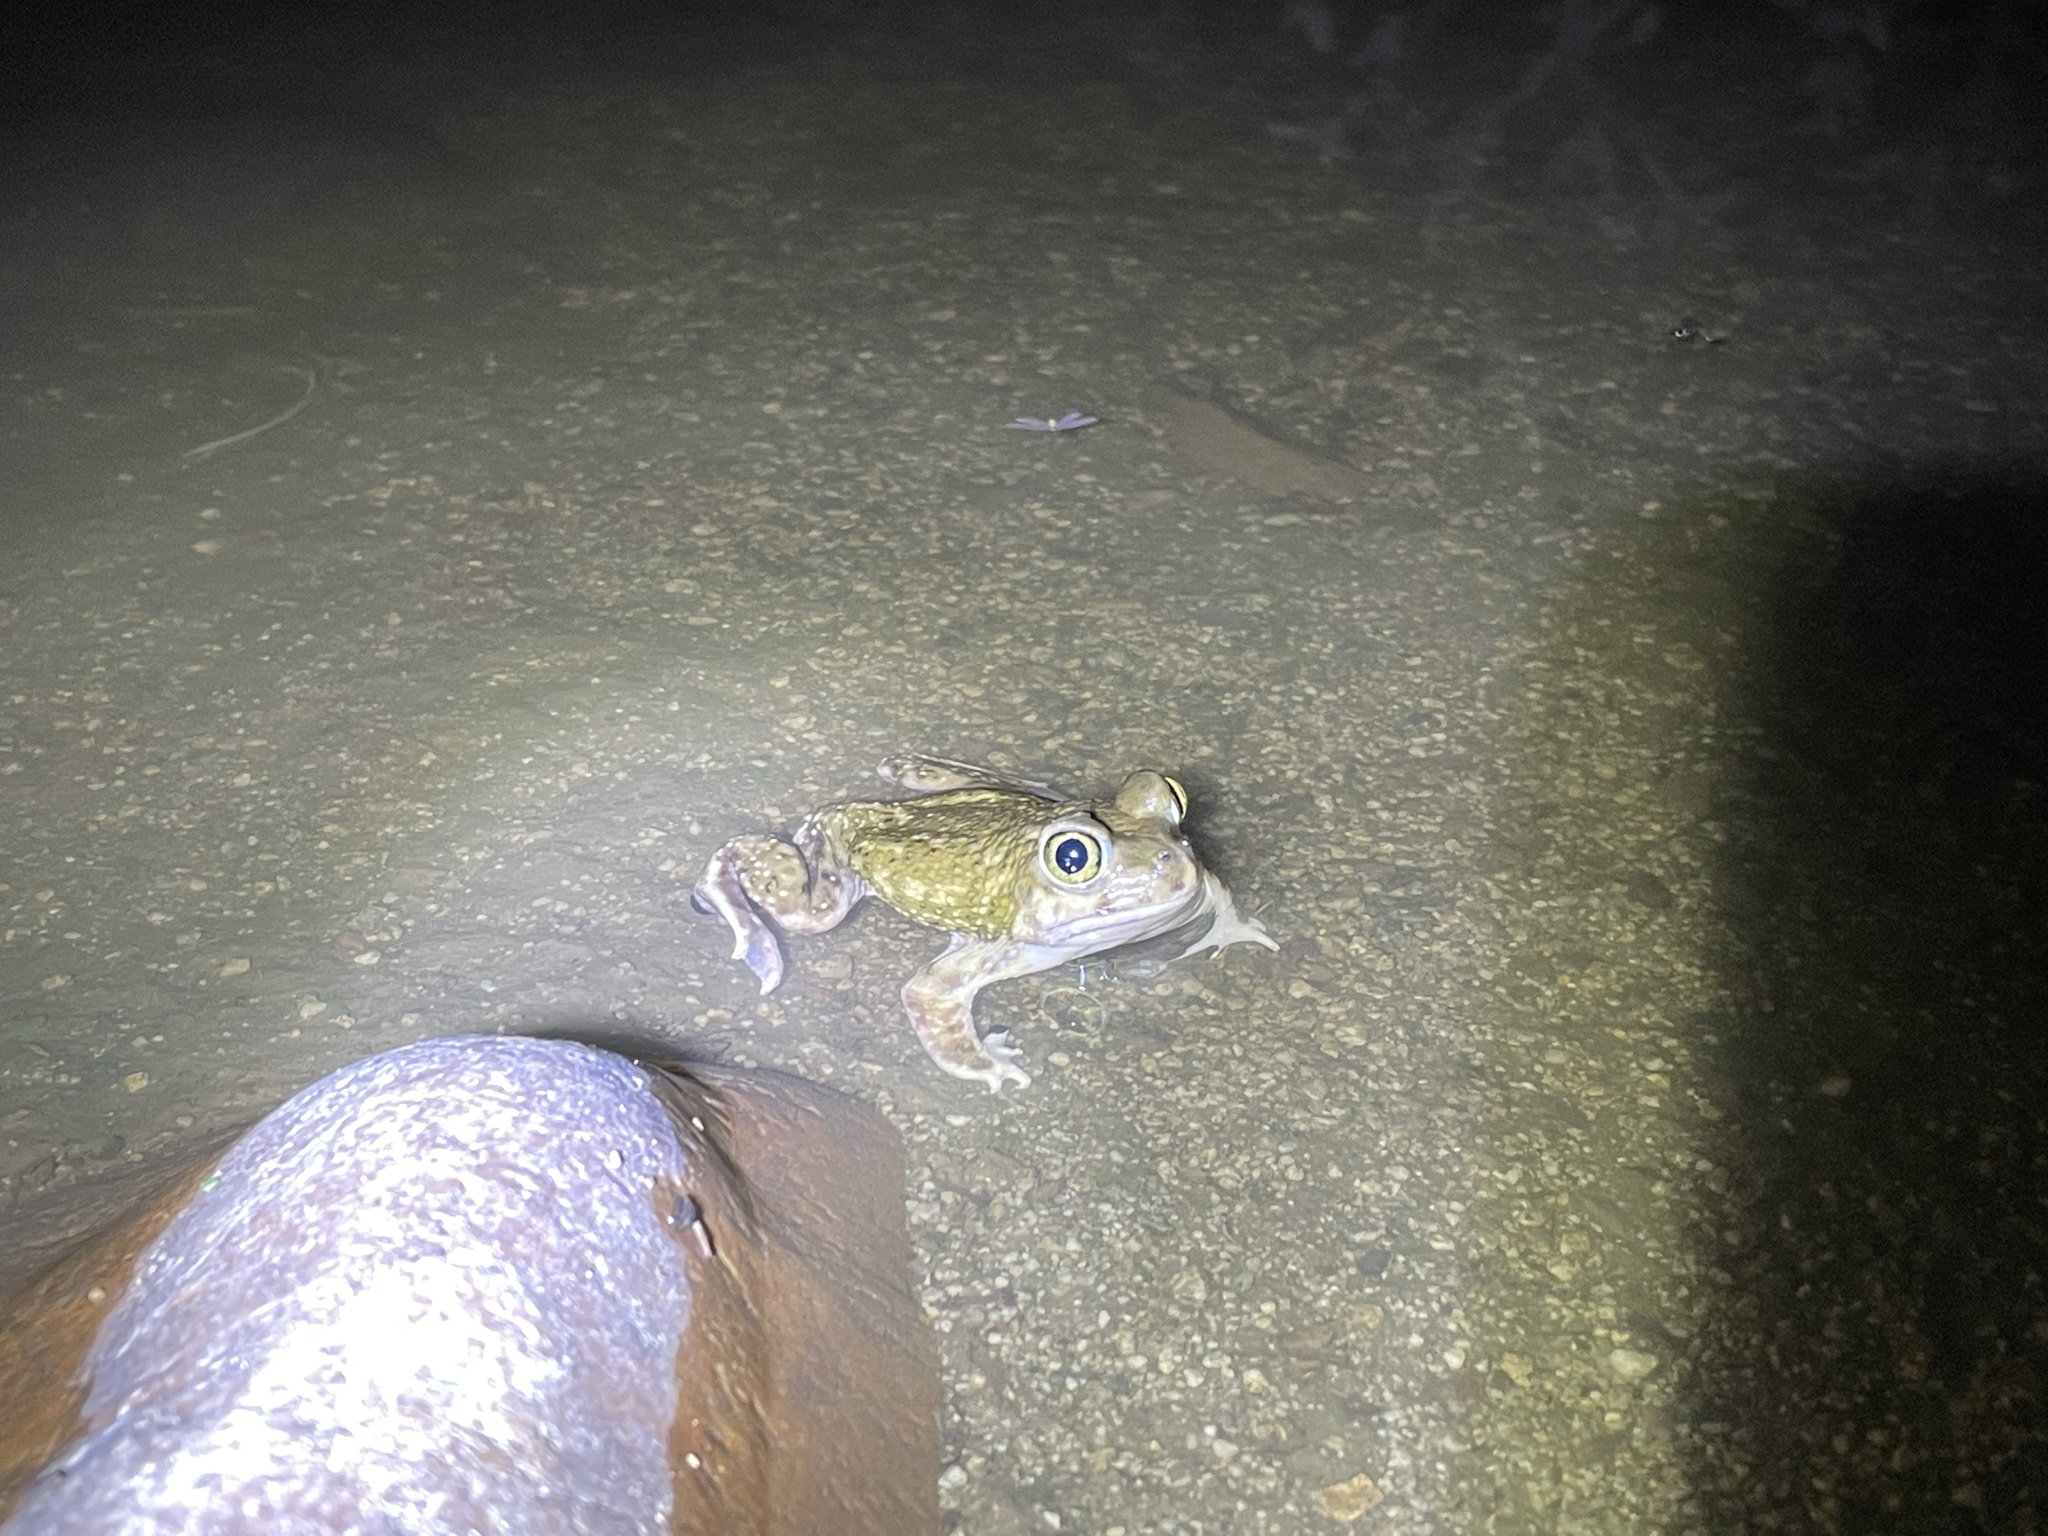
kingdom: Animalia
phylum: Chordata
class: Amphibia
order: Anura
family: Scaphiopodidae
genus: Scaphiopus
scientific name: Scaphiopus couchii
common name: Couch's spadefoot toad
